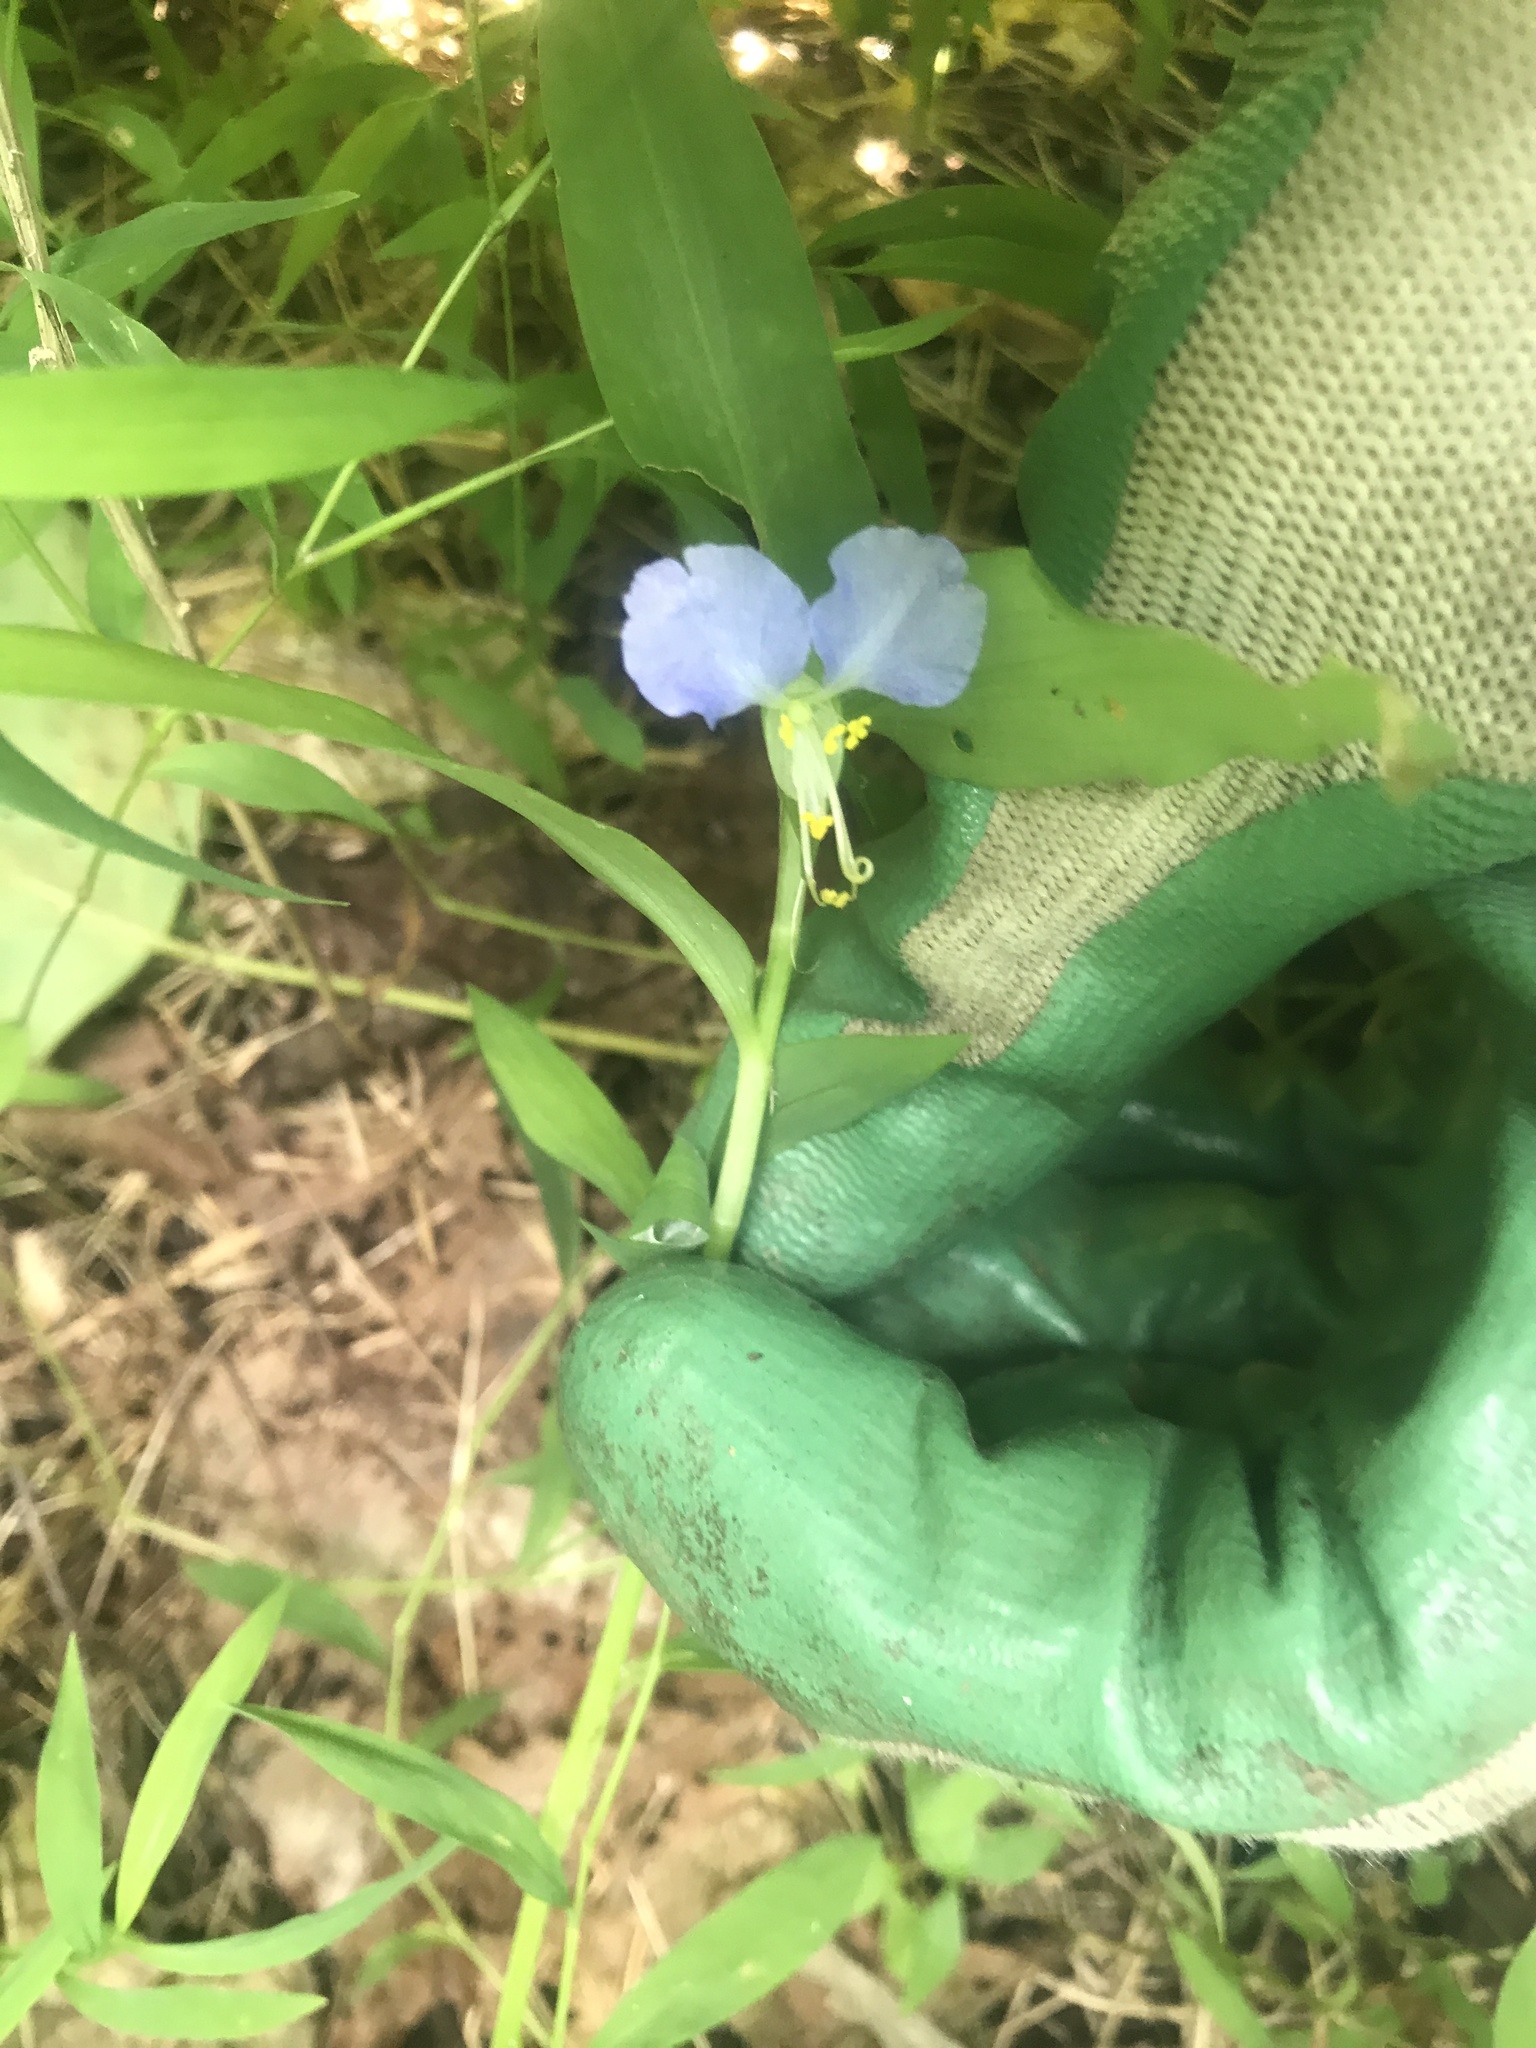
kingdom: Plantae
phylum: Tracheophyta
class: Liliopsida
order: Commelinales
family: Commelinaceae
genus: Commelina
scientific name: Commelina communis
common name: Asiatic dayflower
